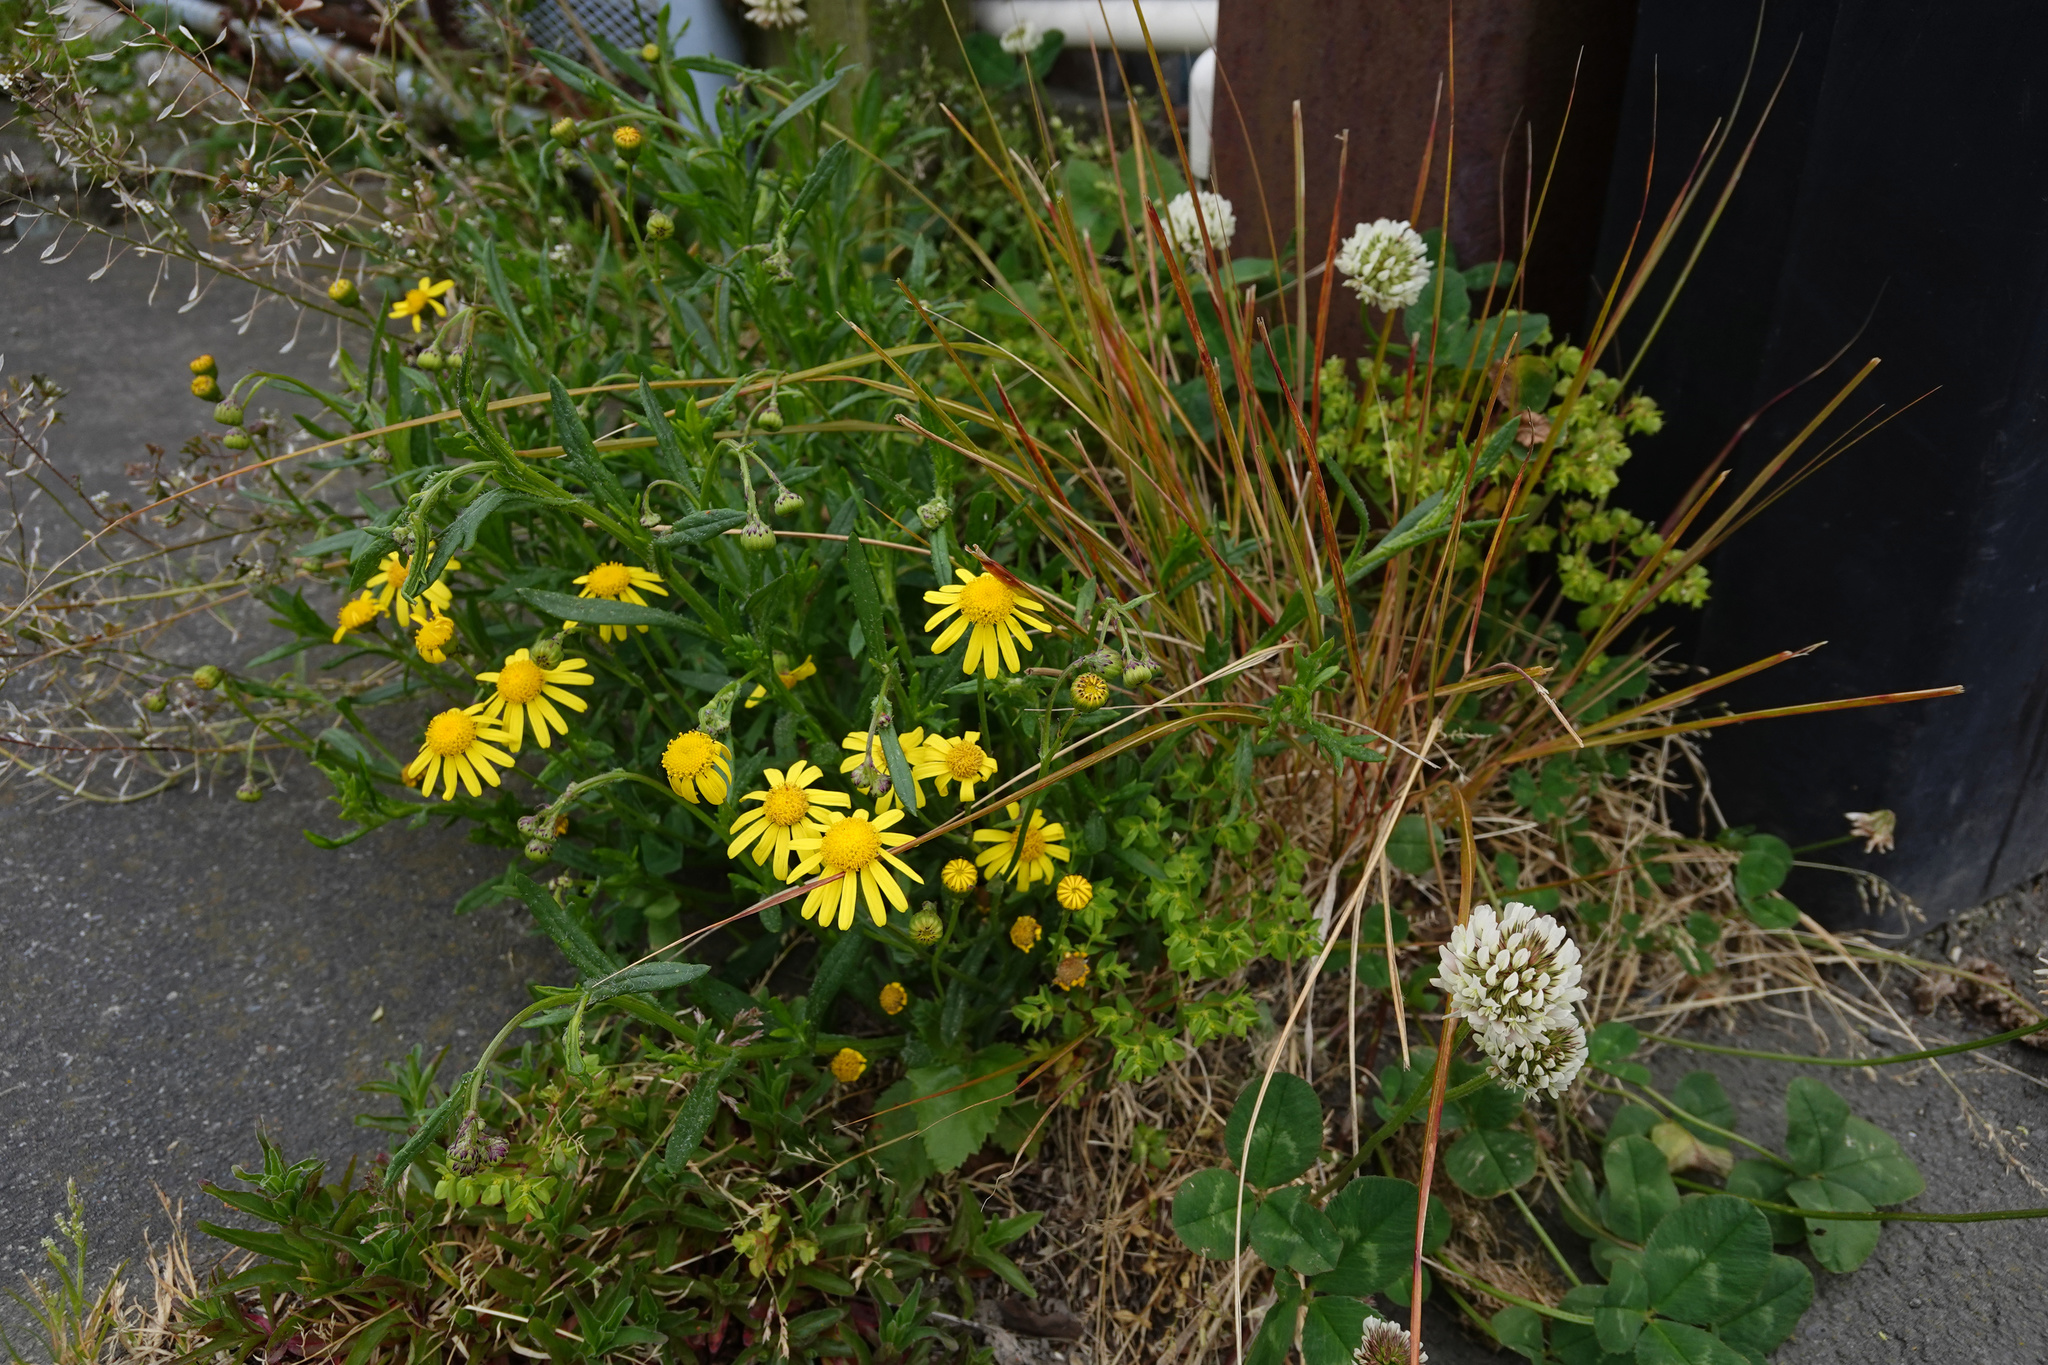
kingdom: Plantae
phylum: Tracheophyta
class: Magnoliopsida
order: Asterales
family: Asteraceae
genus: Senecio
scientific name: Senecio skirrhodon
